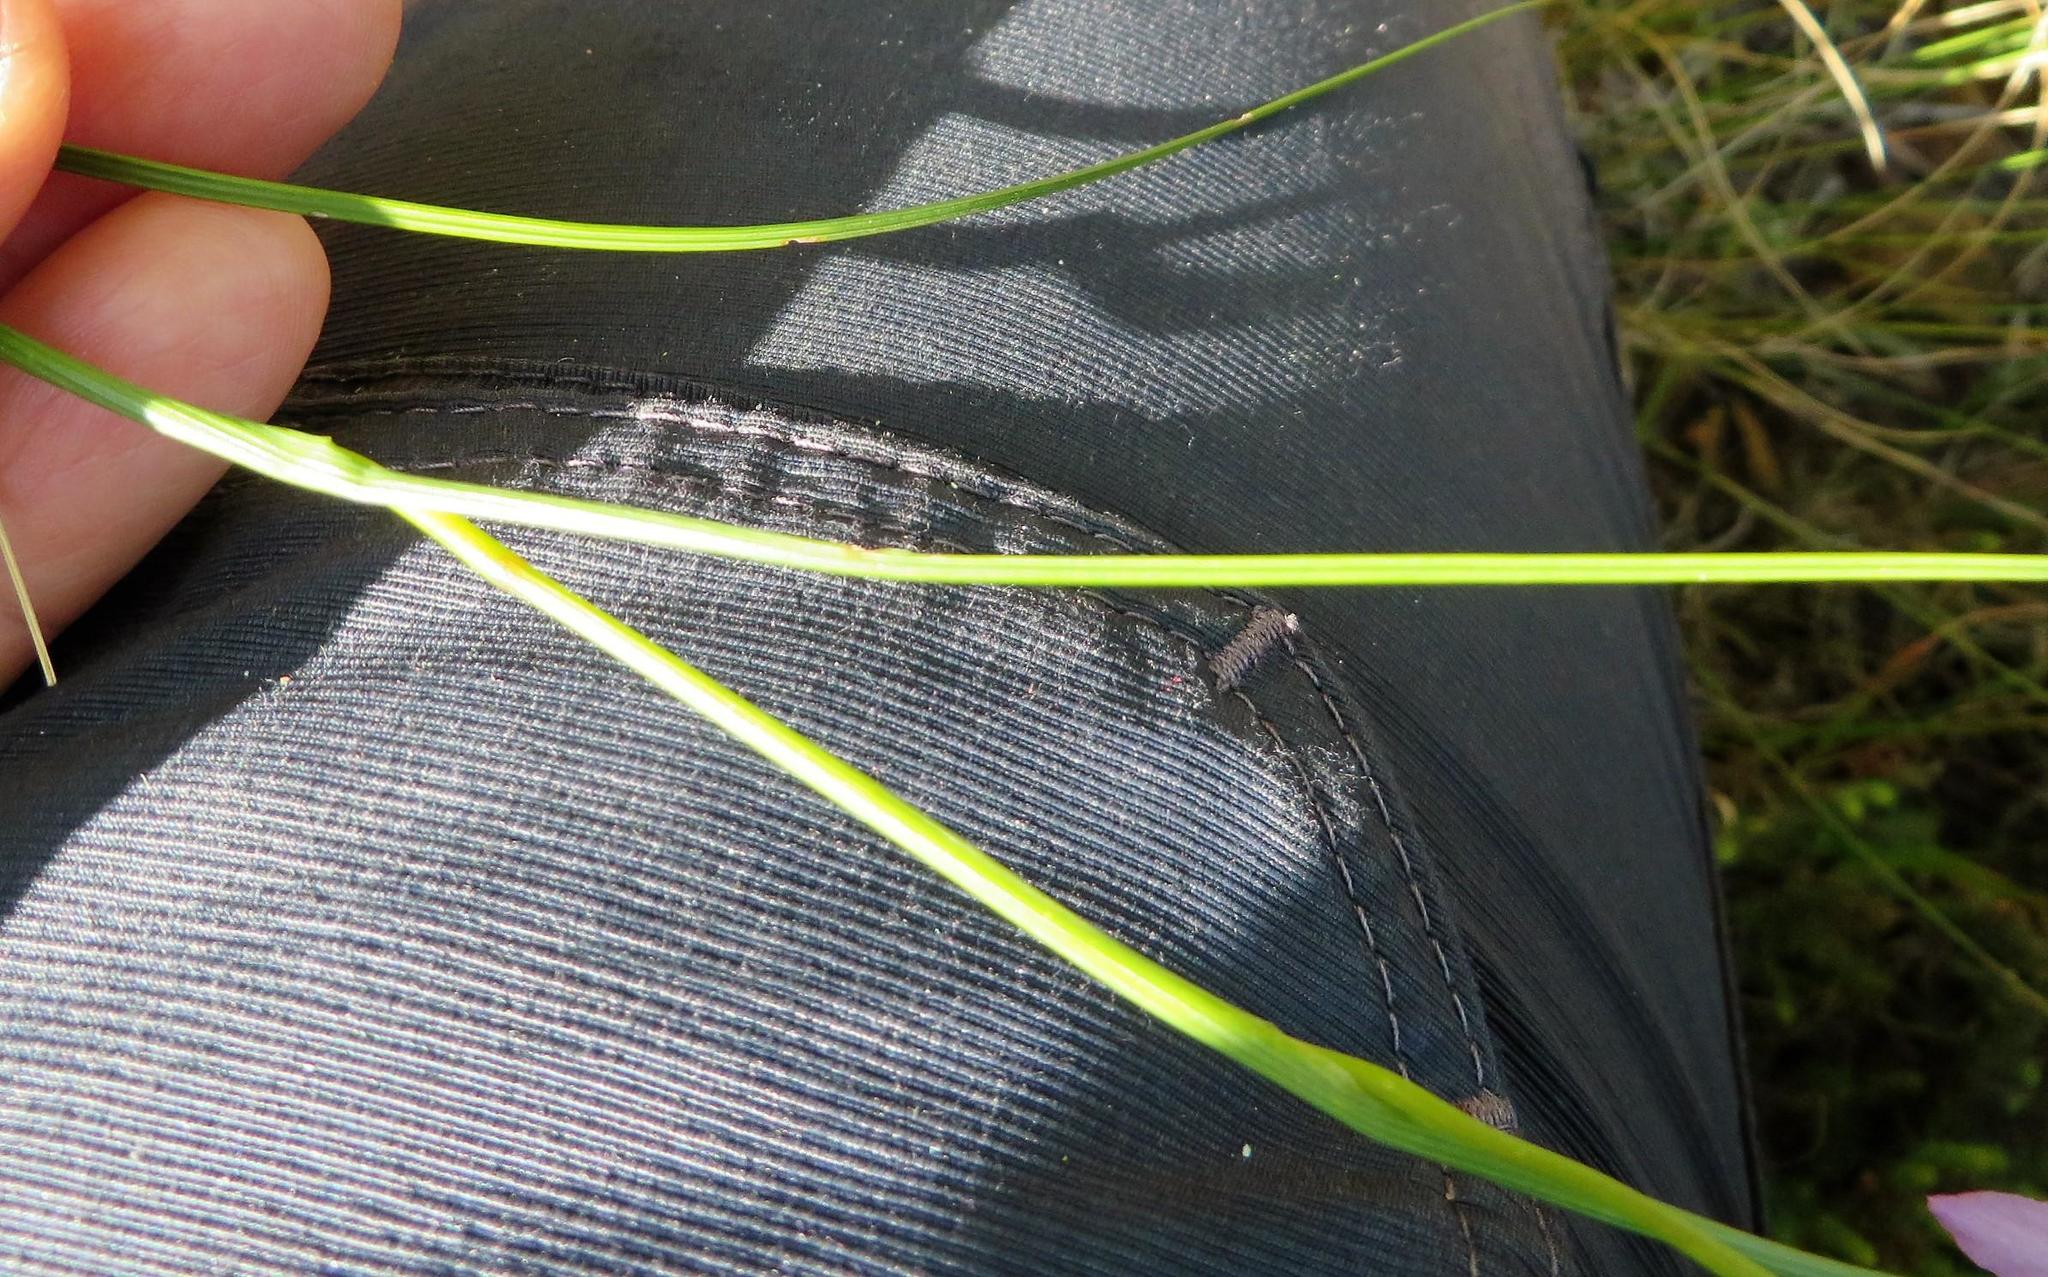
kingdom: Plantae
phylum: Tracheophyta
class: Liliopsida
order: Asparagales
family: Iridaceae
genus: Gladiolus
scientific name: Gladiolus blommesteinii
